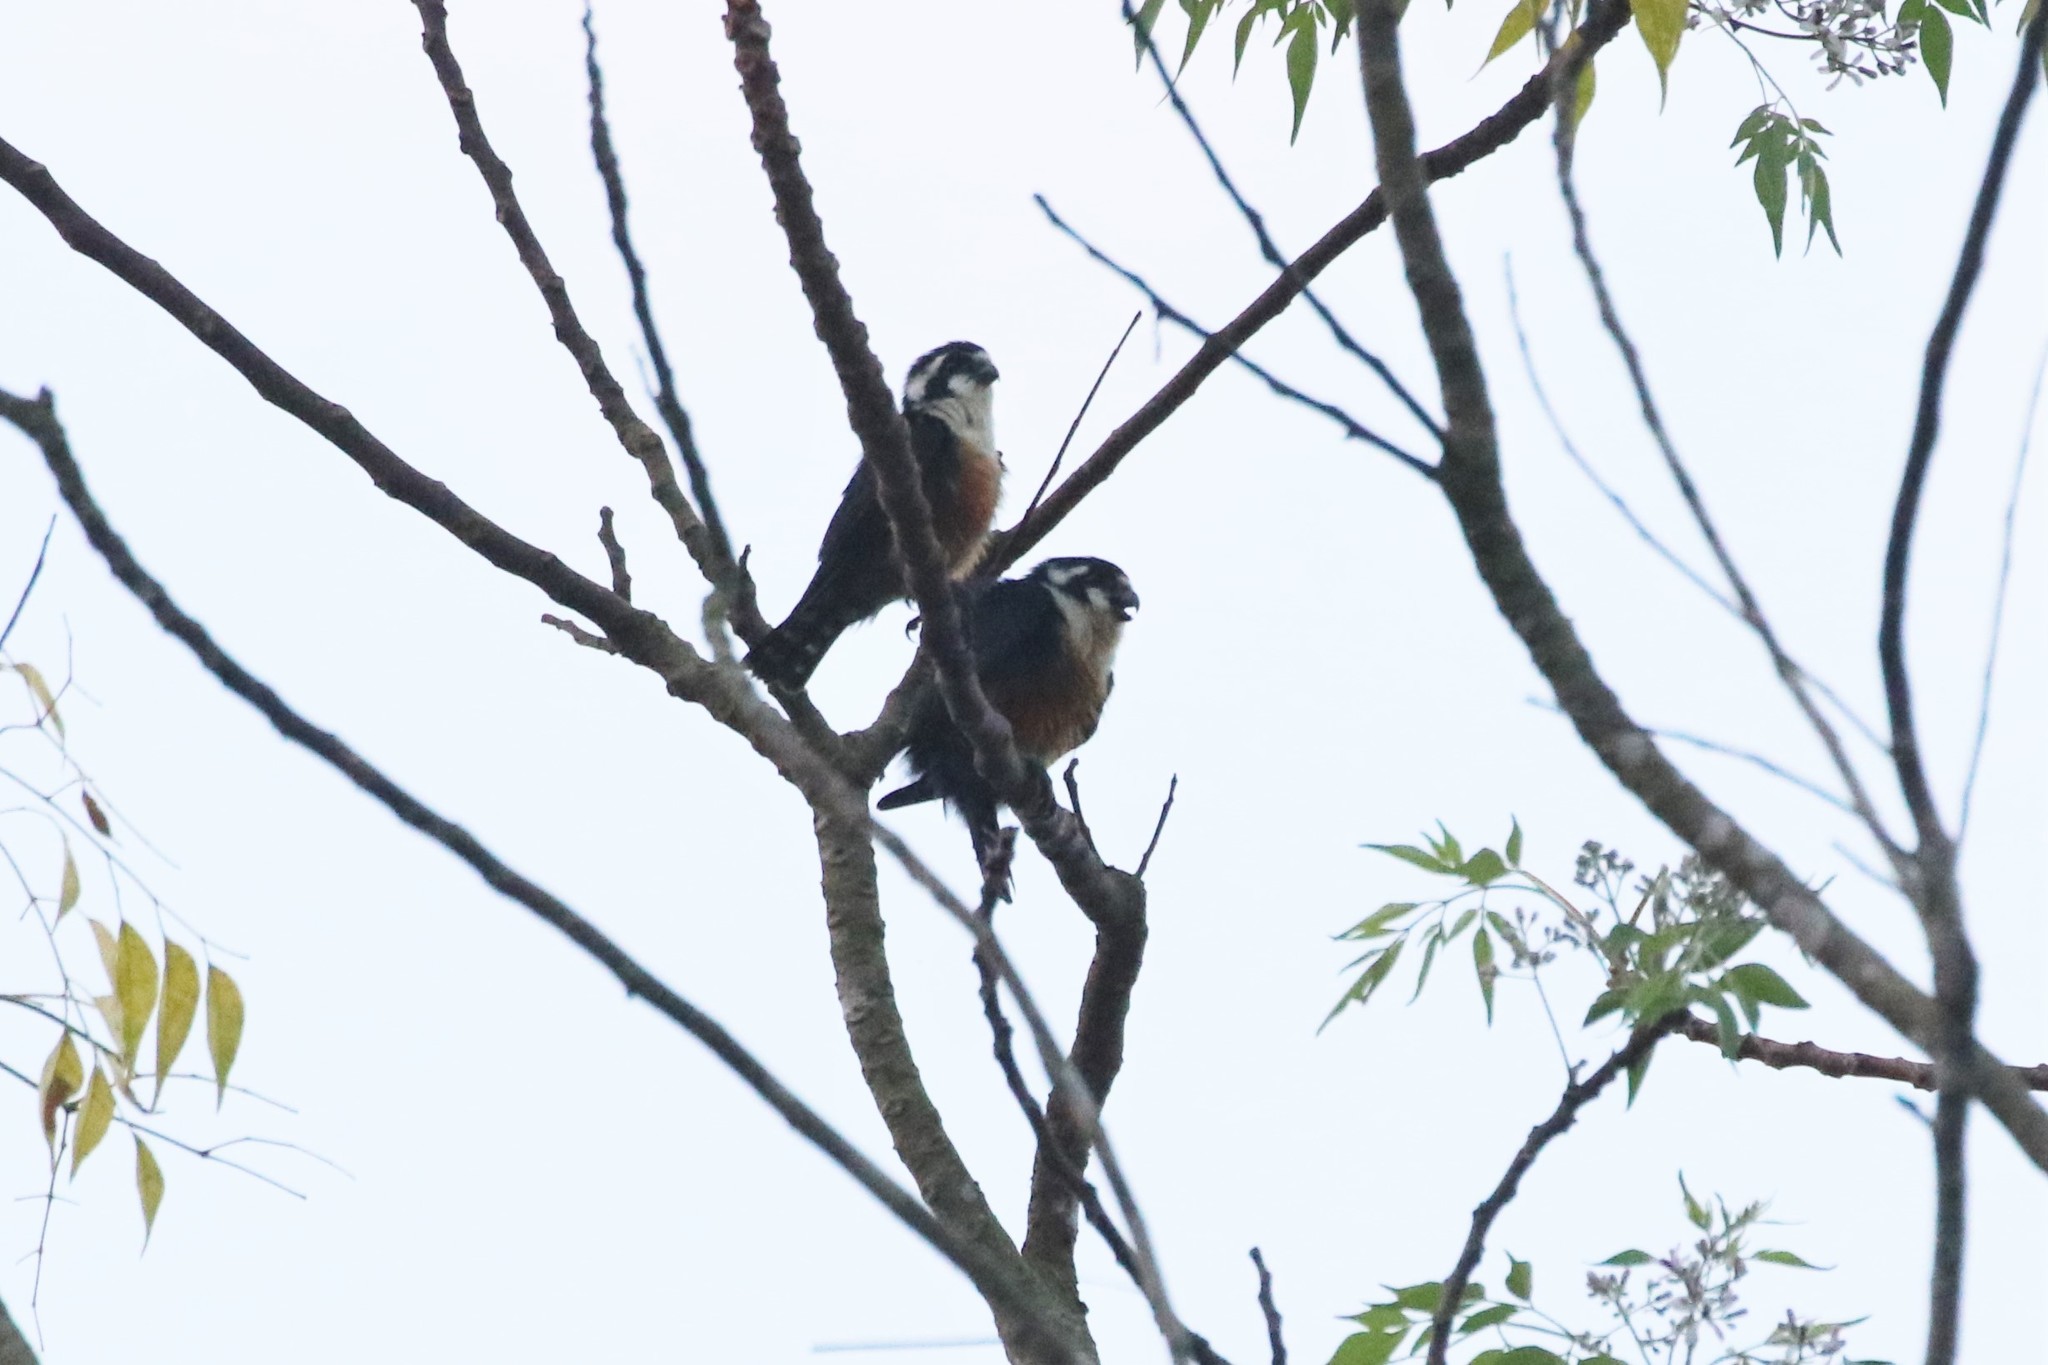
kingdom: Animalia
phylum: Chordata
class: Aves
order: Falconiformes
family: Falconidae
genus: Microhierax
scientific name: Microhierax fringillarius
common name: Black-thighed falconet
